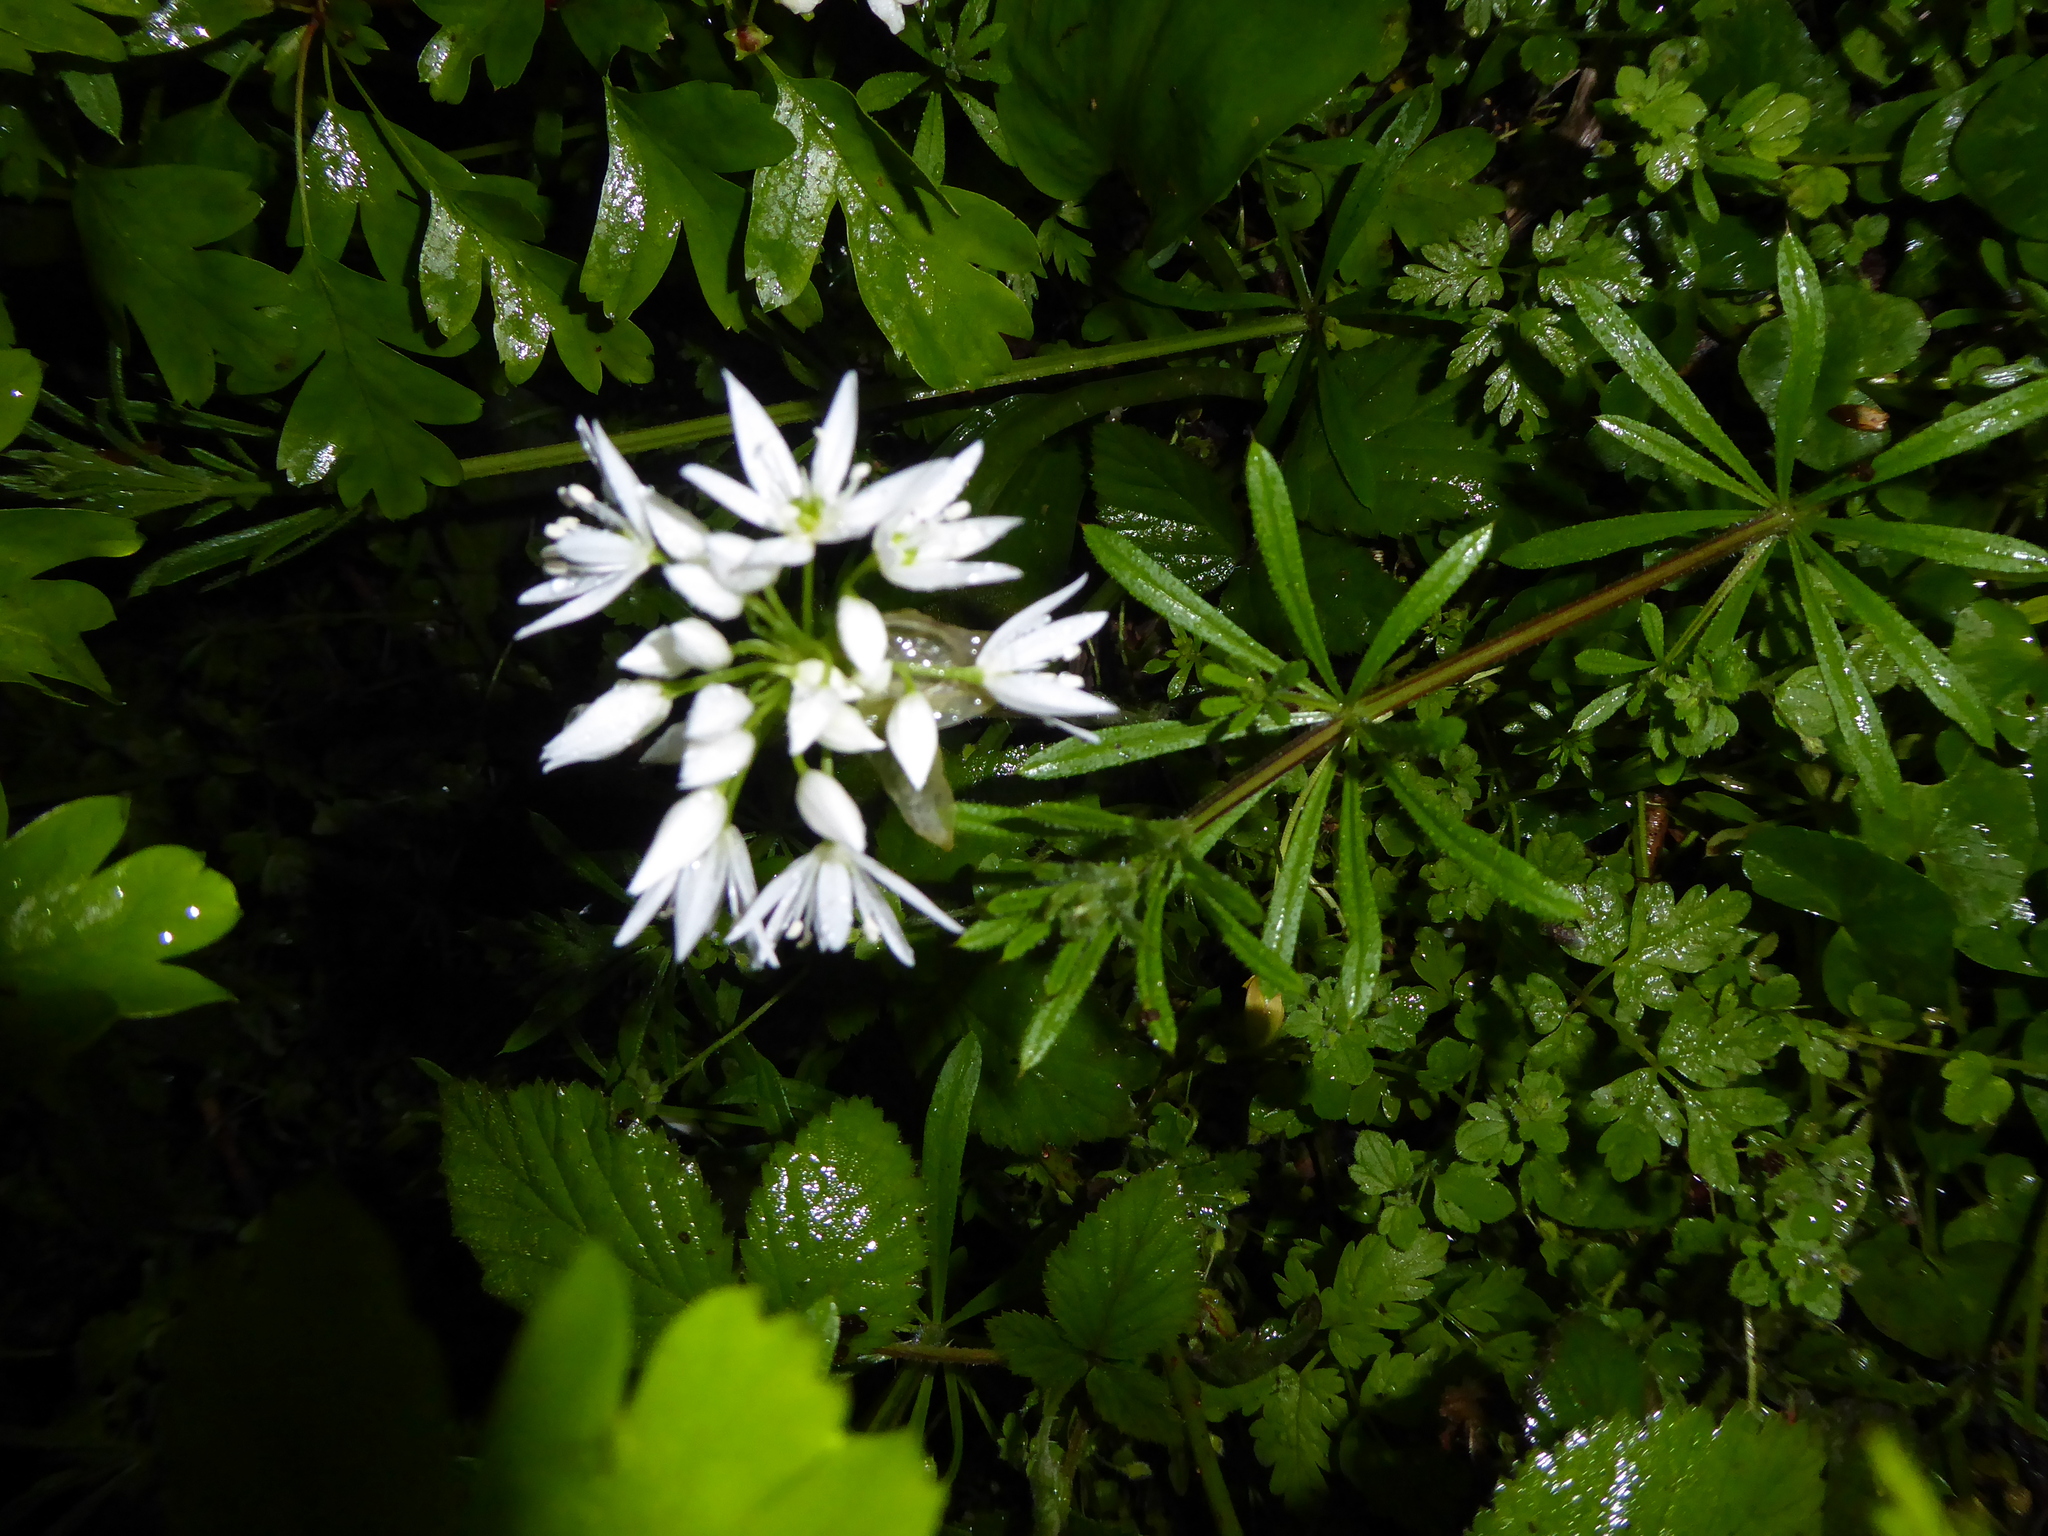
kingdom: Plantae
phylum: Tracheophyta
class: Liliopsida
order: Asparagales
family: Amaryllidaceae
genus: Allium
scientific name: Allium ursinum
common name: Ramsons
